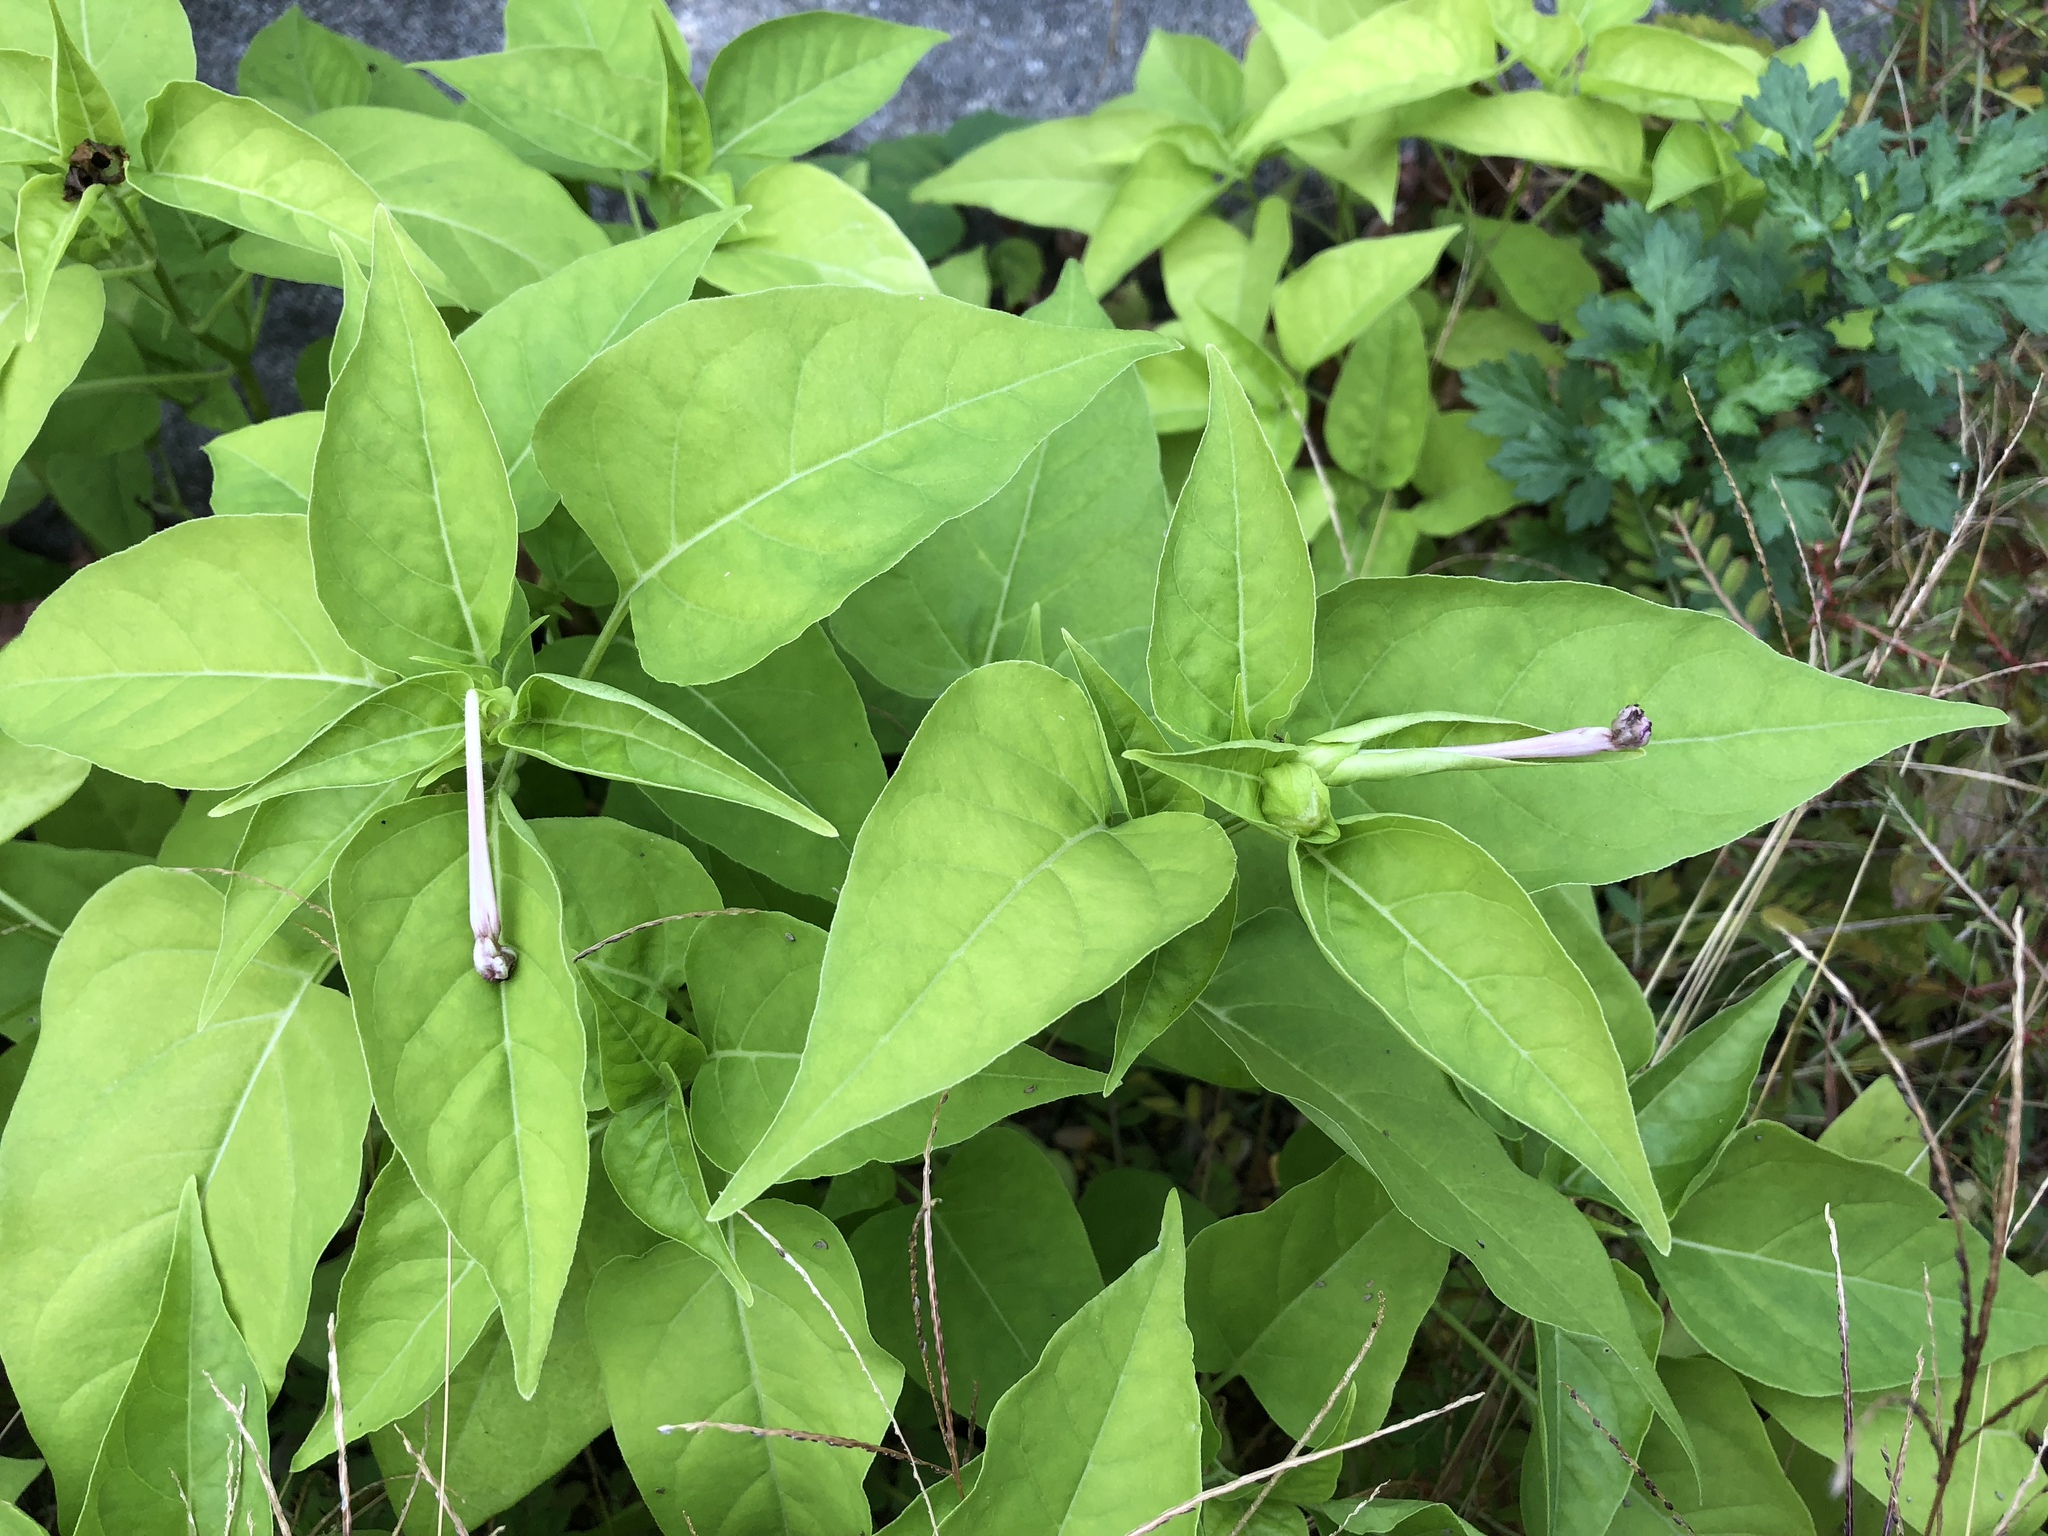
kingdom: Plantae
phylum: Tracheophyta
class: Magnoliopsida
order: Caryophyllales
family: Nyctaginaceae
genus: Mirabilis
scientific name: Mirabilis jalapa
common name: Marvel-of-peru
